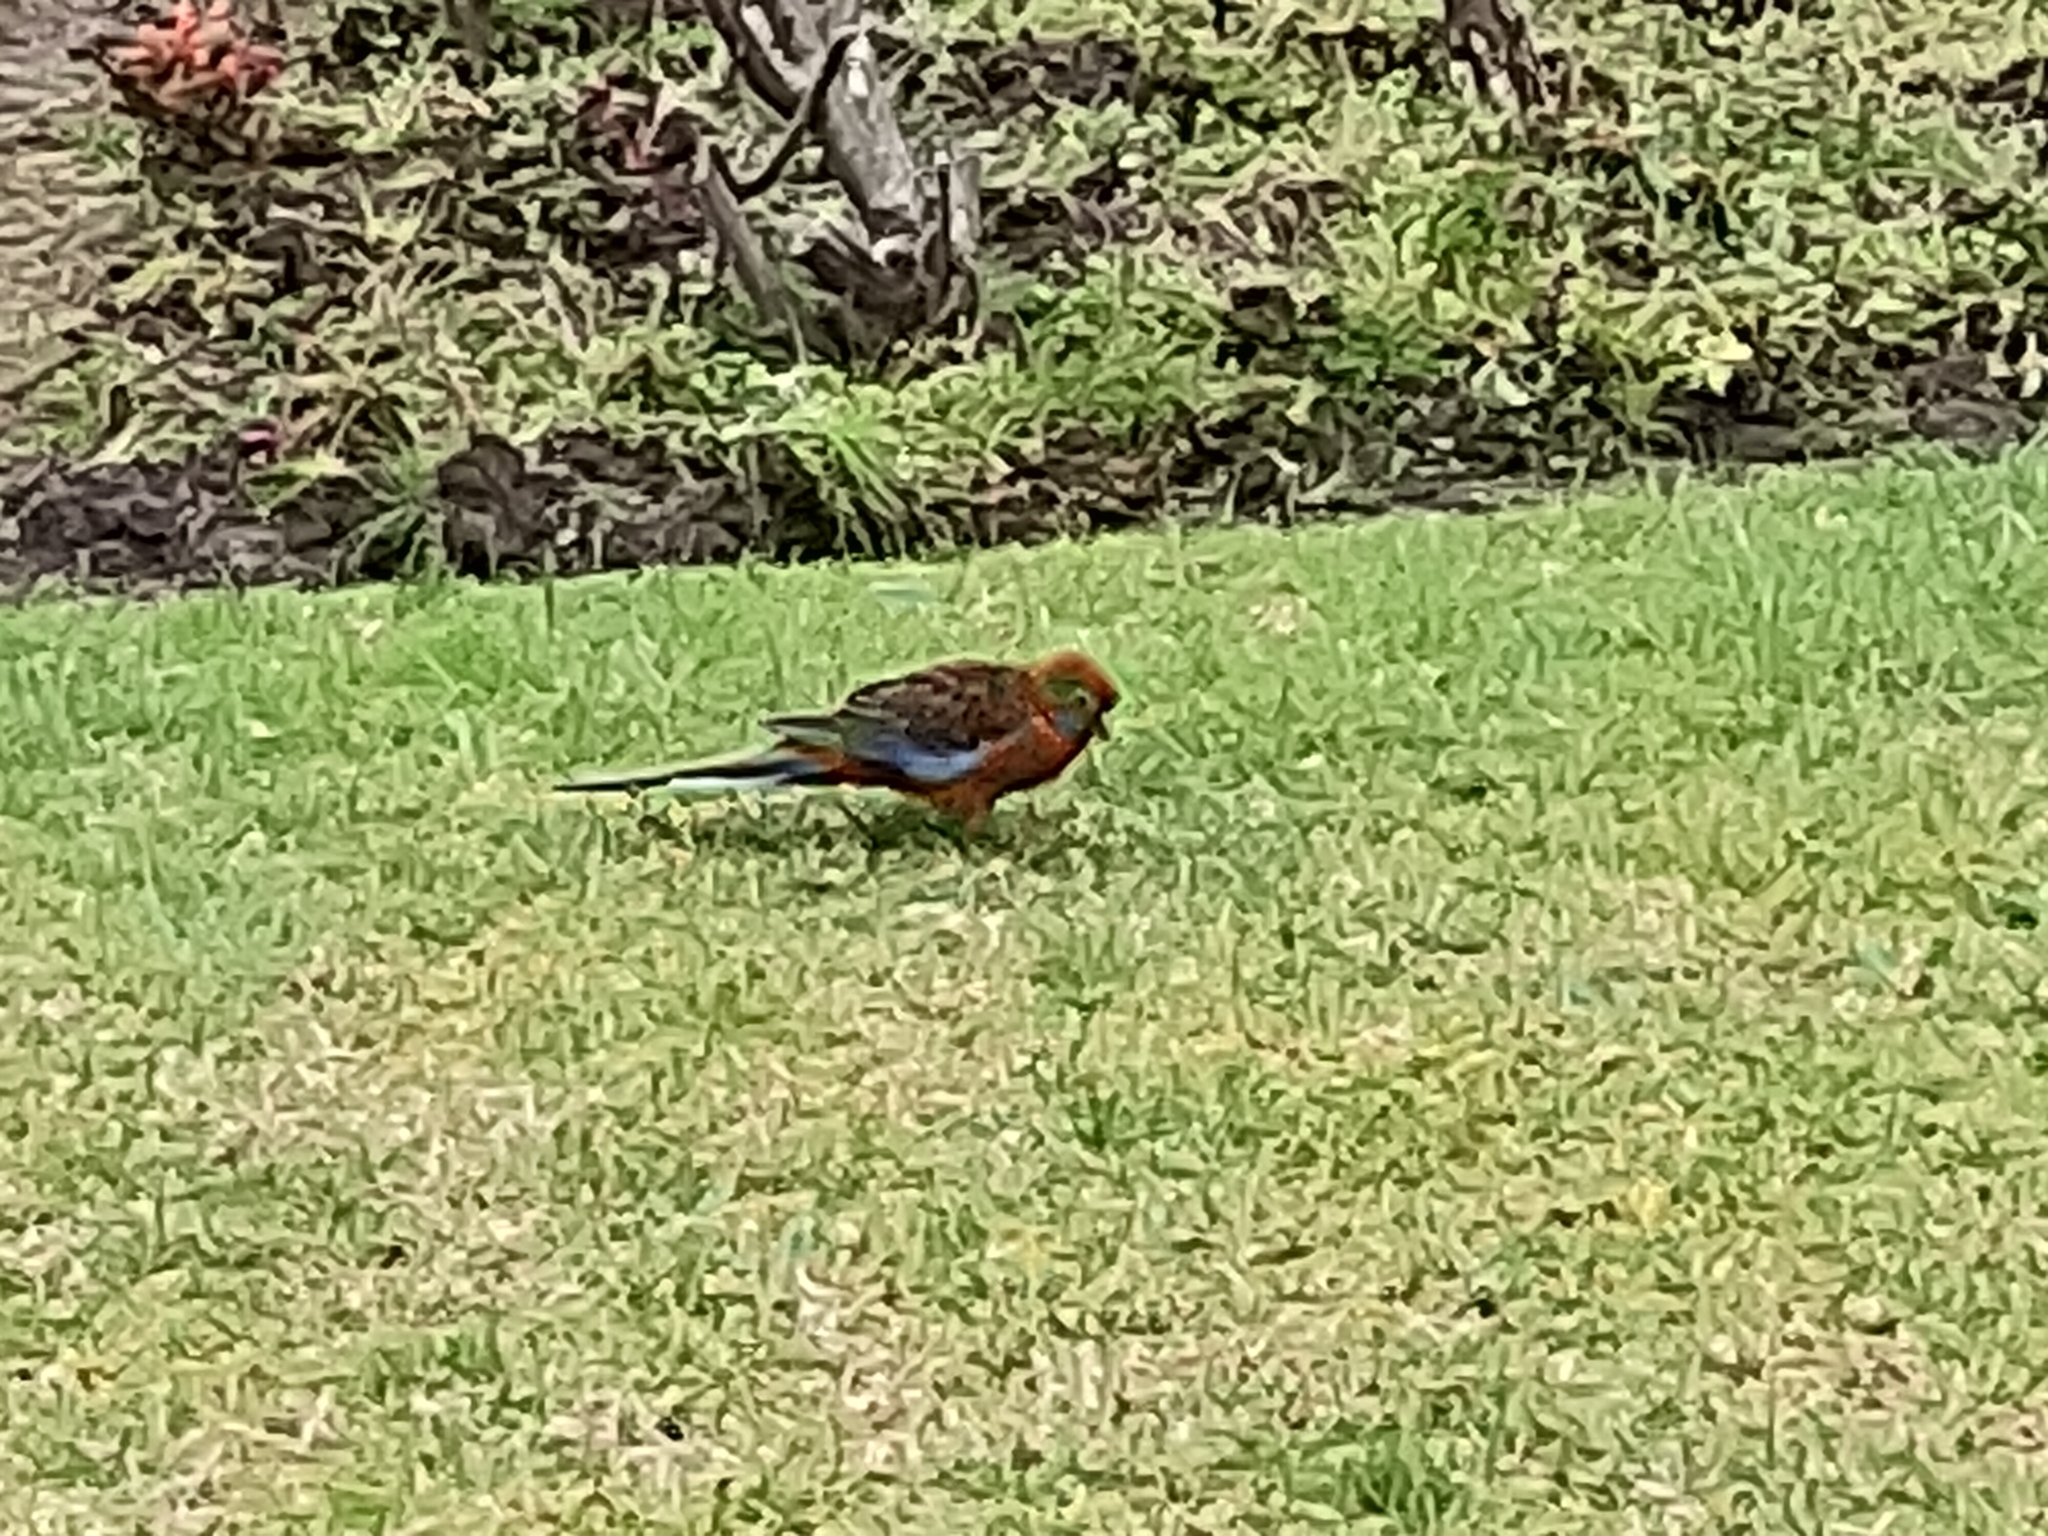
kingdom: Animalia
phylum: Chordata
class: Aves
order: Psittaciformes
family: Psittacidae
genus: Platycercus
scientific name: Platycercus elegans
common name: Crimson rosella
